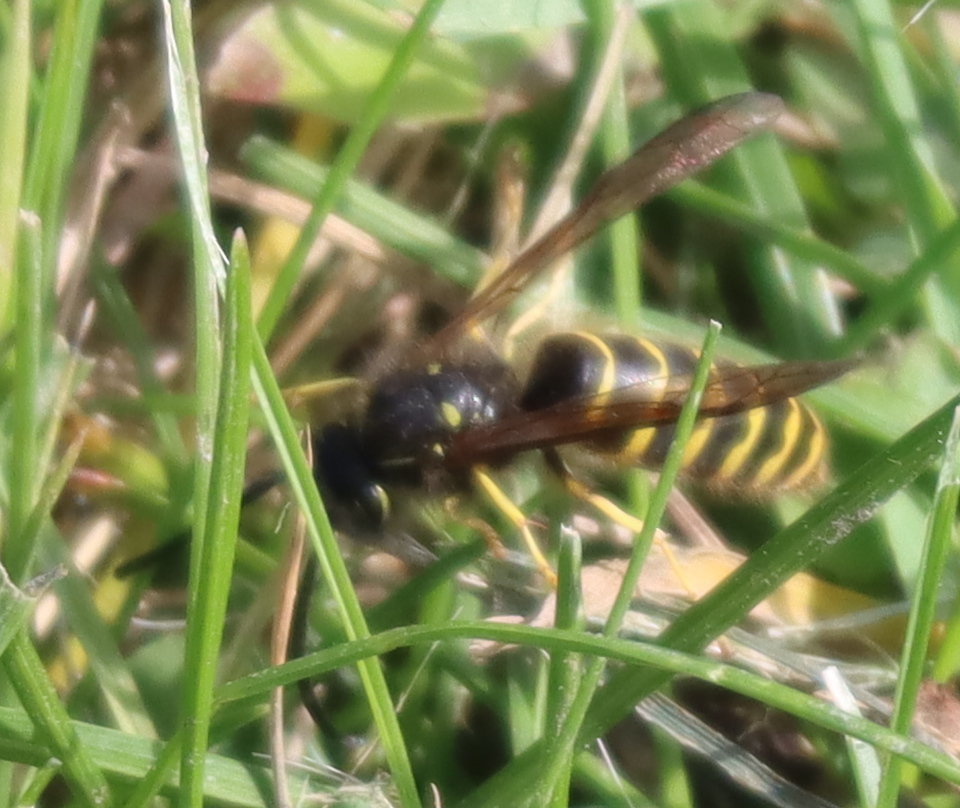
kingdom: Animalia
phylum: Arthropoda
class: Insecta
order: Hymenoptera
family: Vespidae
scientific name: Vespidae
